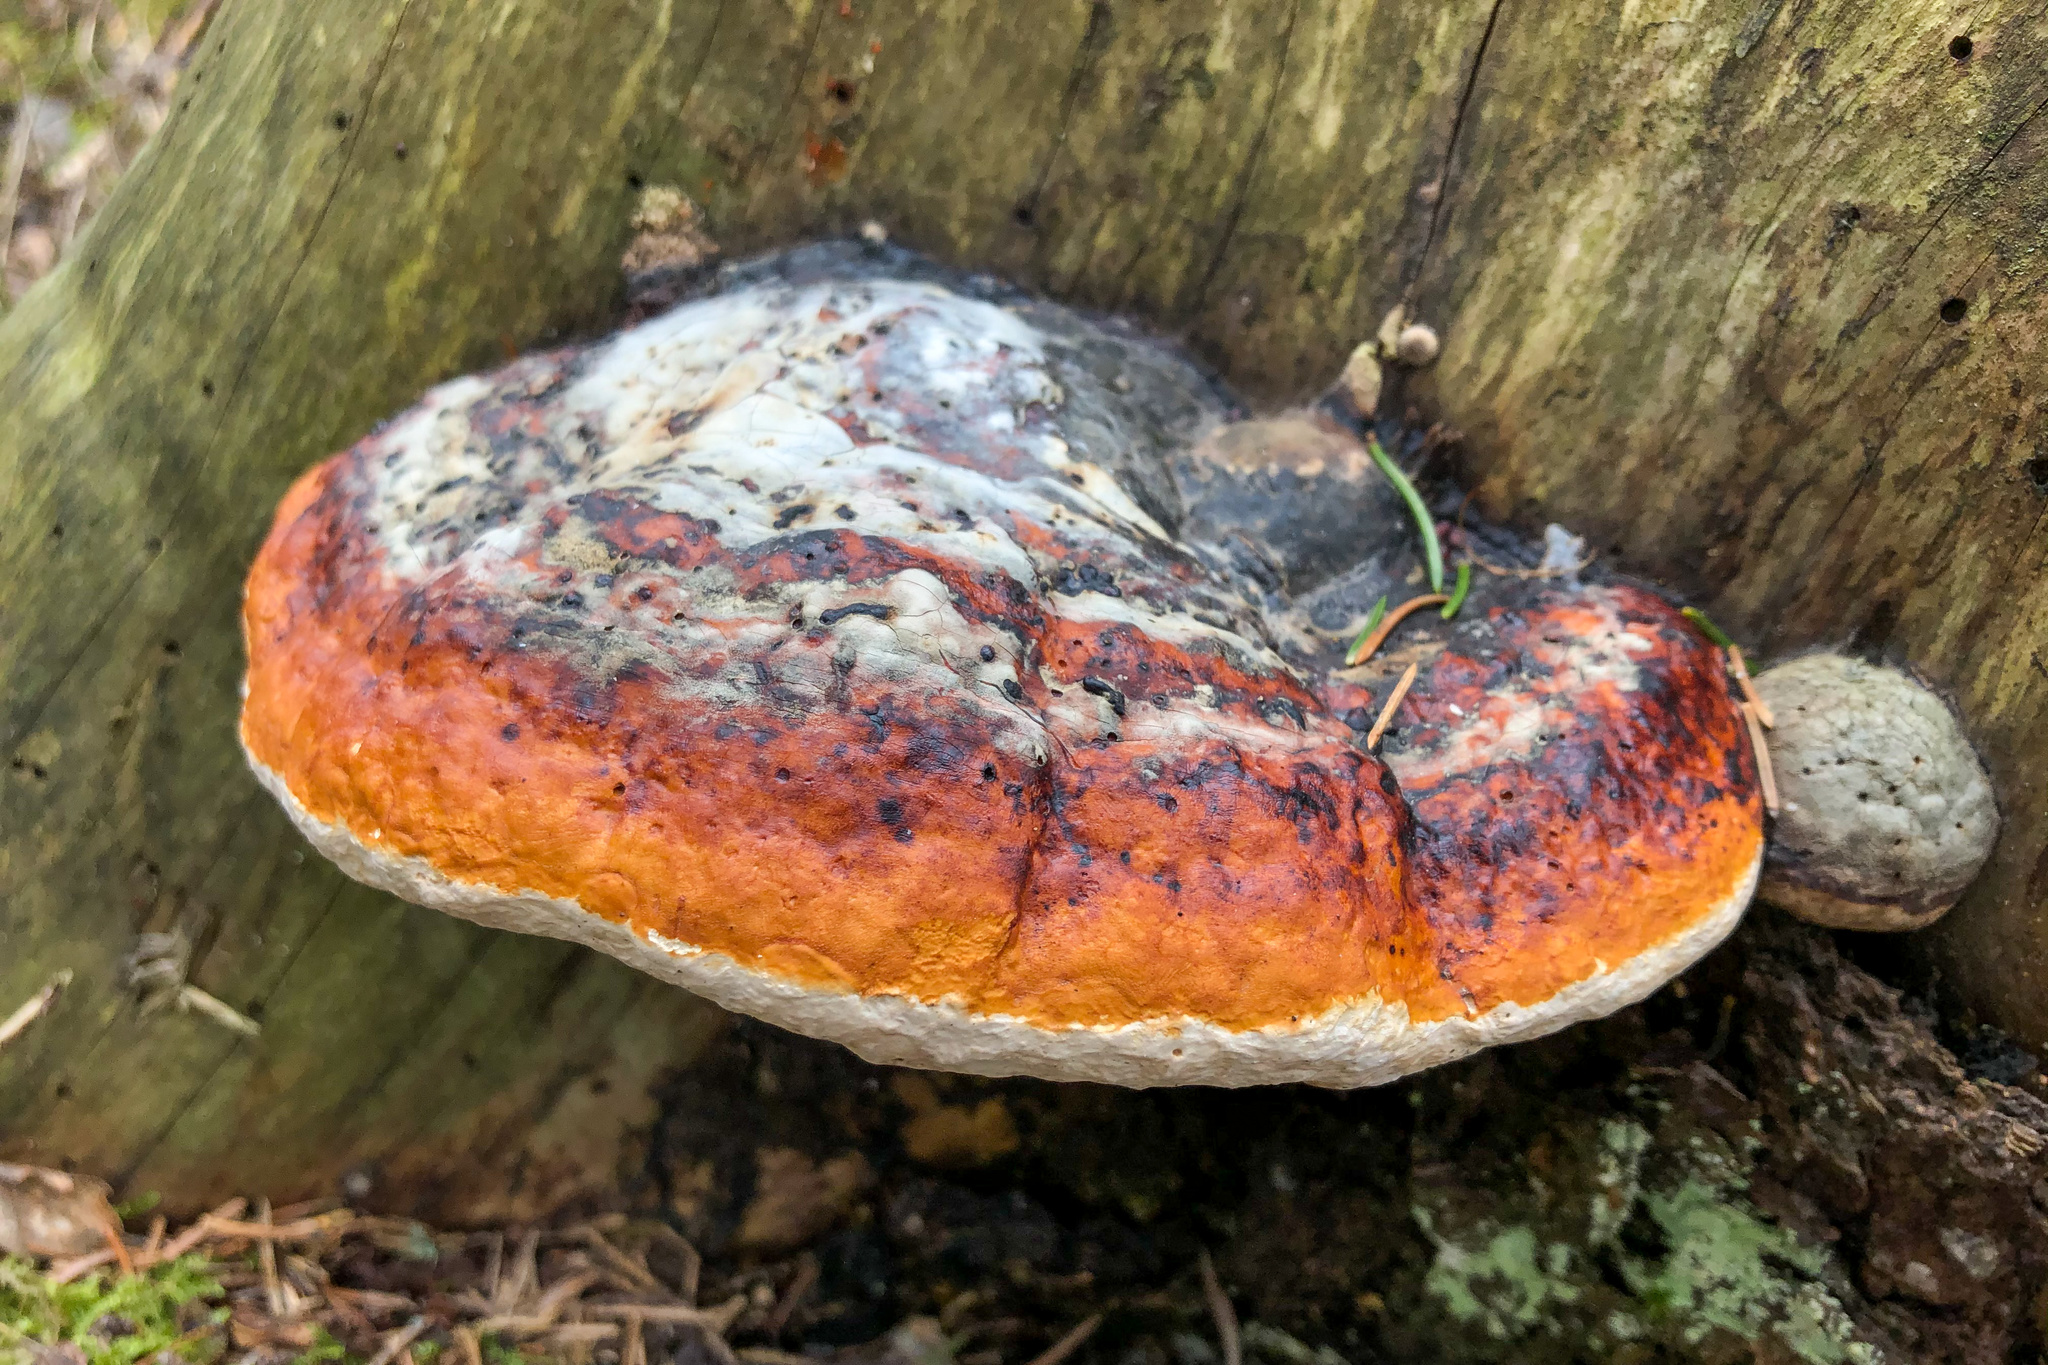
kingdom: Fungi
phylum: Basidiomycota
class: Agaricomycetes
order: Polyporales
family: Fomitopsidaceae
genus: Fomitopsis
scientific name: Fomitopsis pinicola
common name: Red-belted bracket
